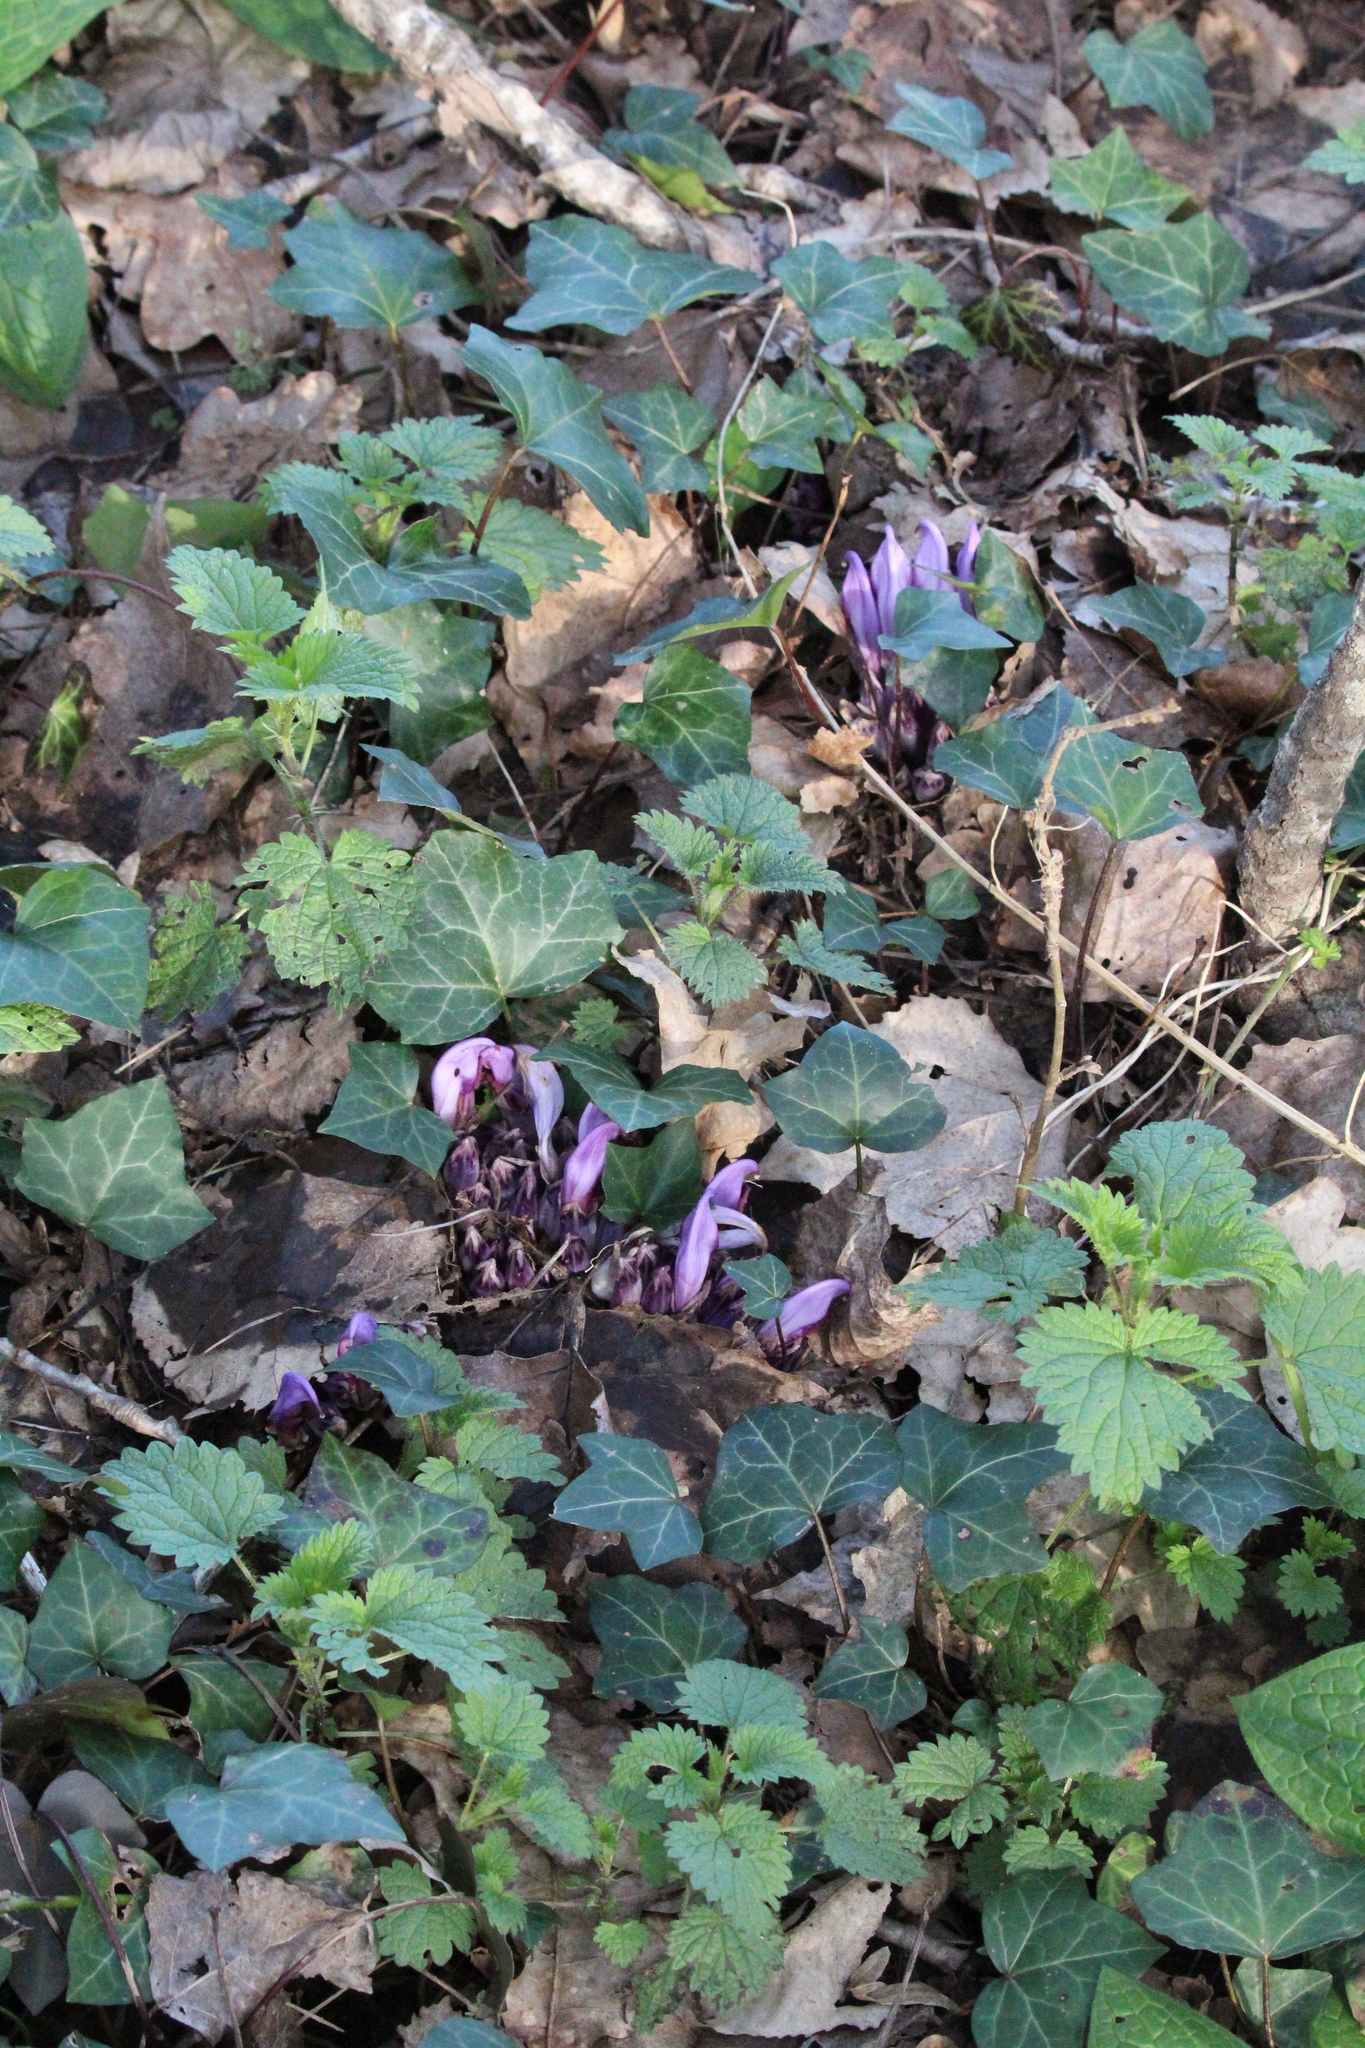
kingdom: Plantae
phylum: Tracheophyta
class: Magnoliopsida
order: Lamiales
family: Orobanchaceae
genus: Lathraea
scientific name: Lathraea clandestina
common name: Purple toothwort
